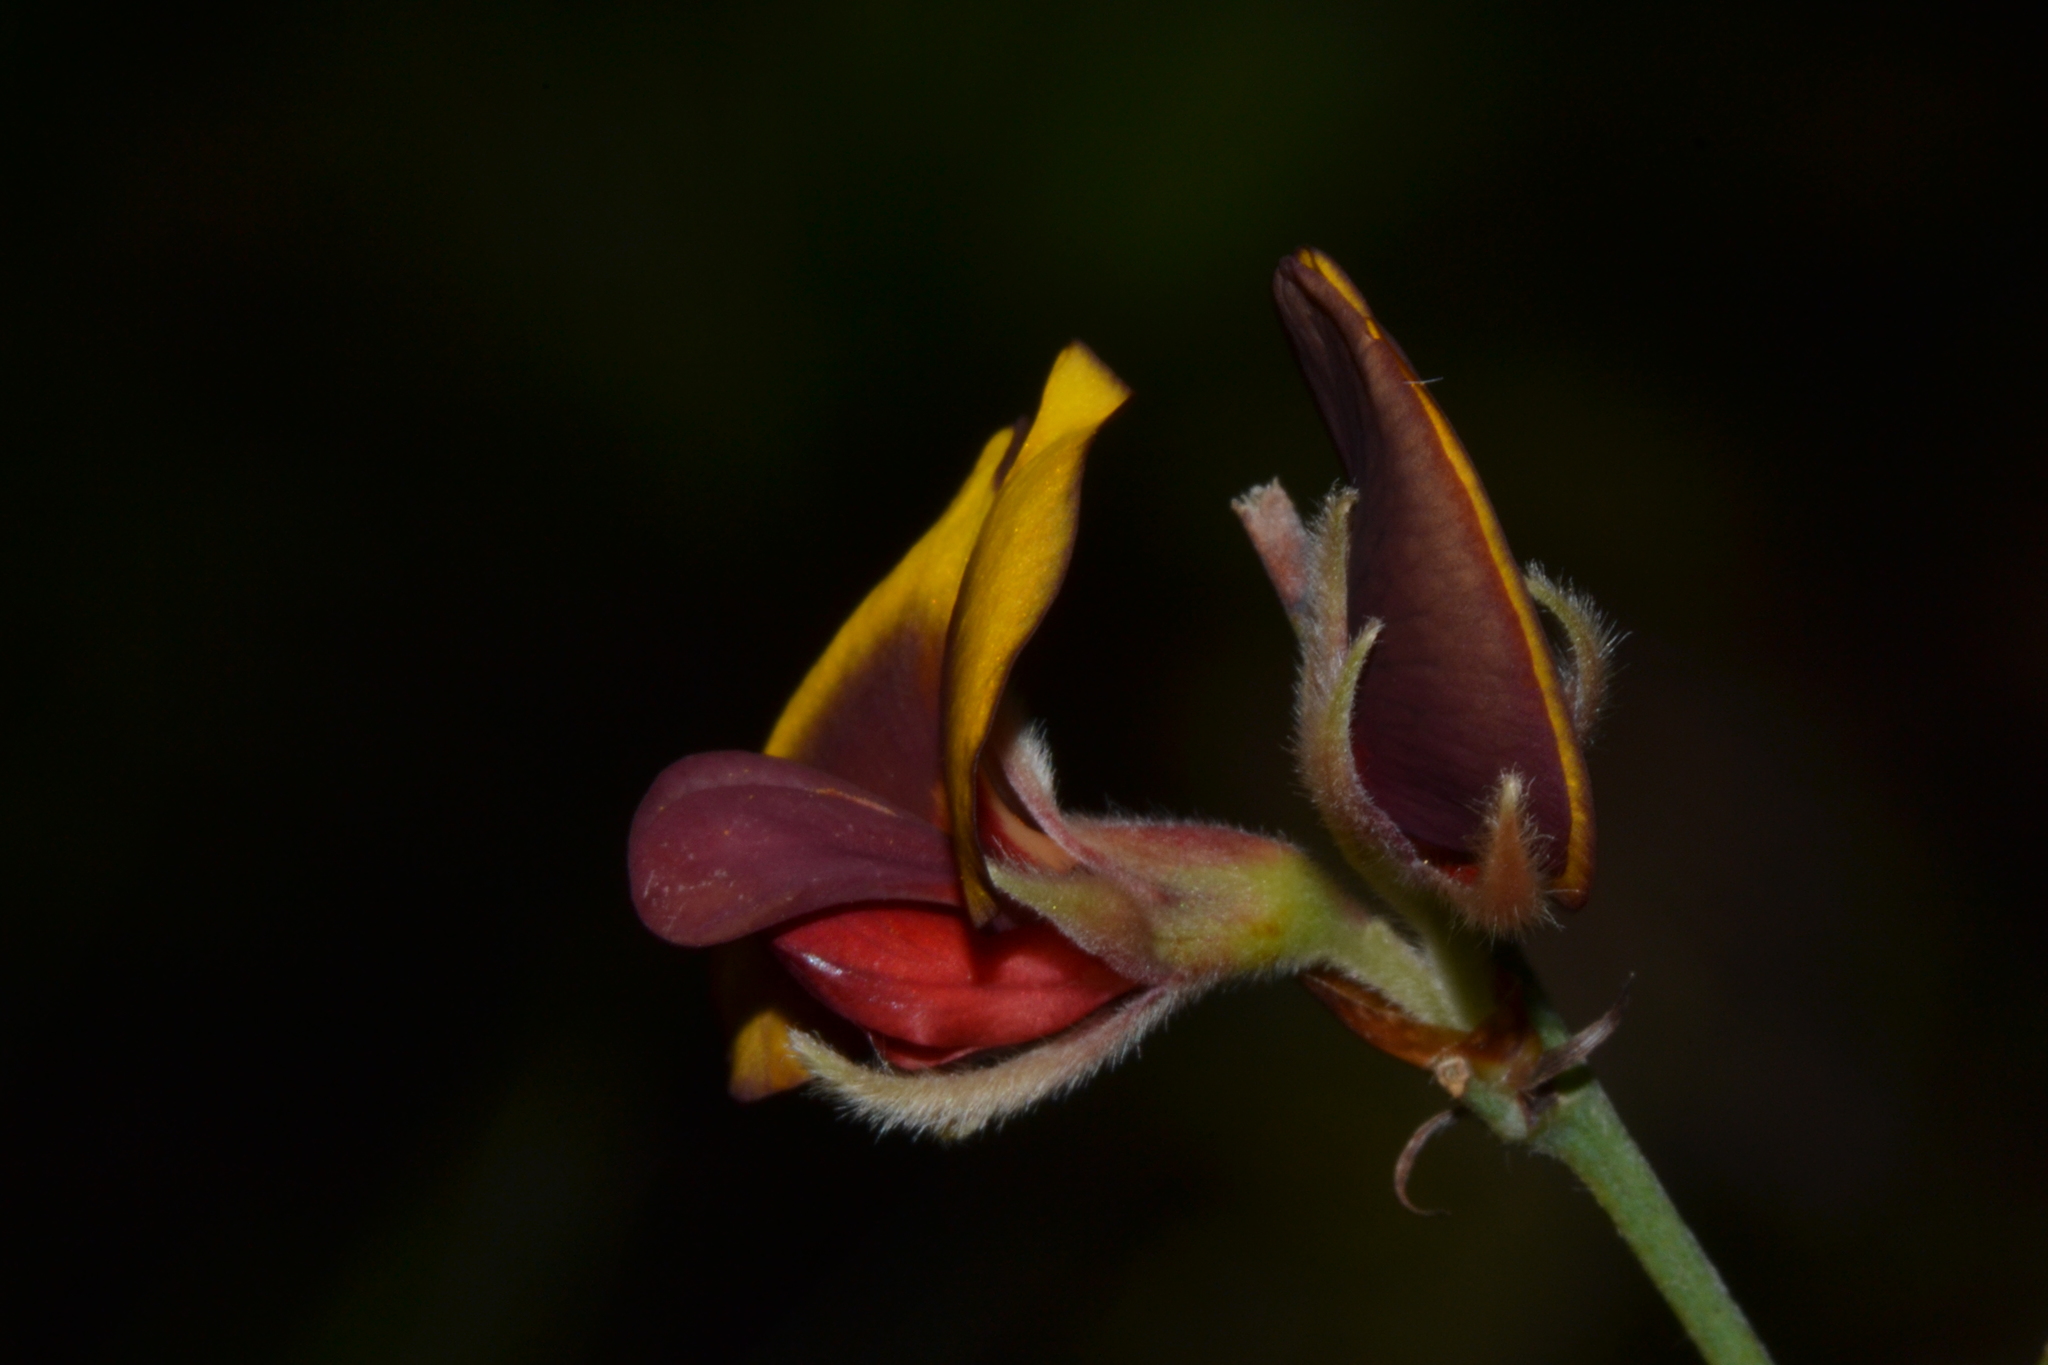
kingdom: Plantae
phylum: Tracheophyta
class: Magnoliopsida
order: Fabales
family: Fabaceae
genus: Bossiaea
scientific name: Bossiaea ornata
